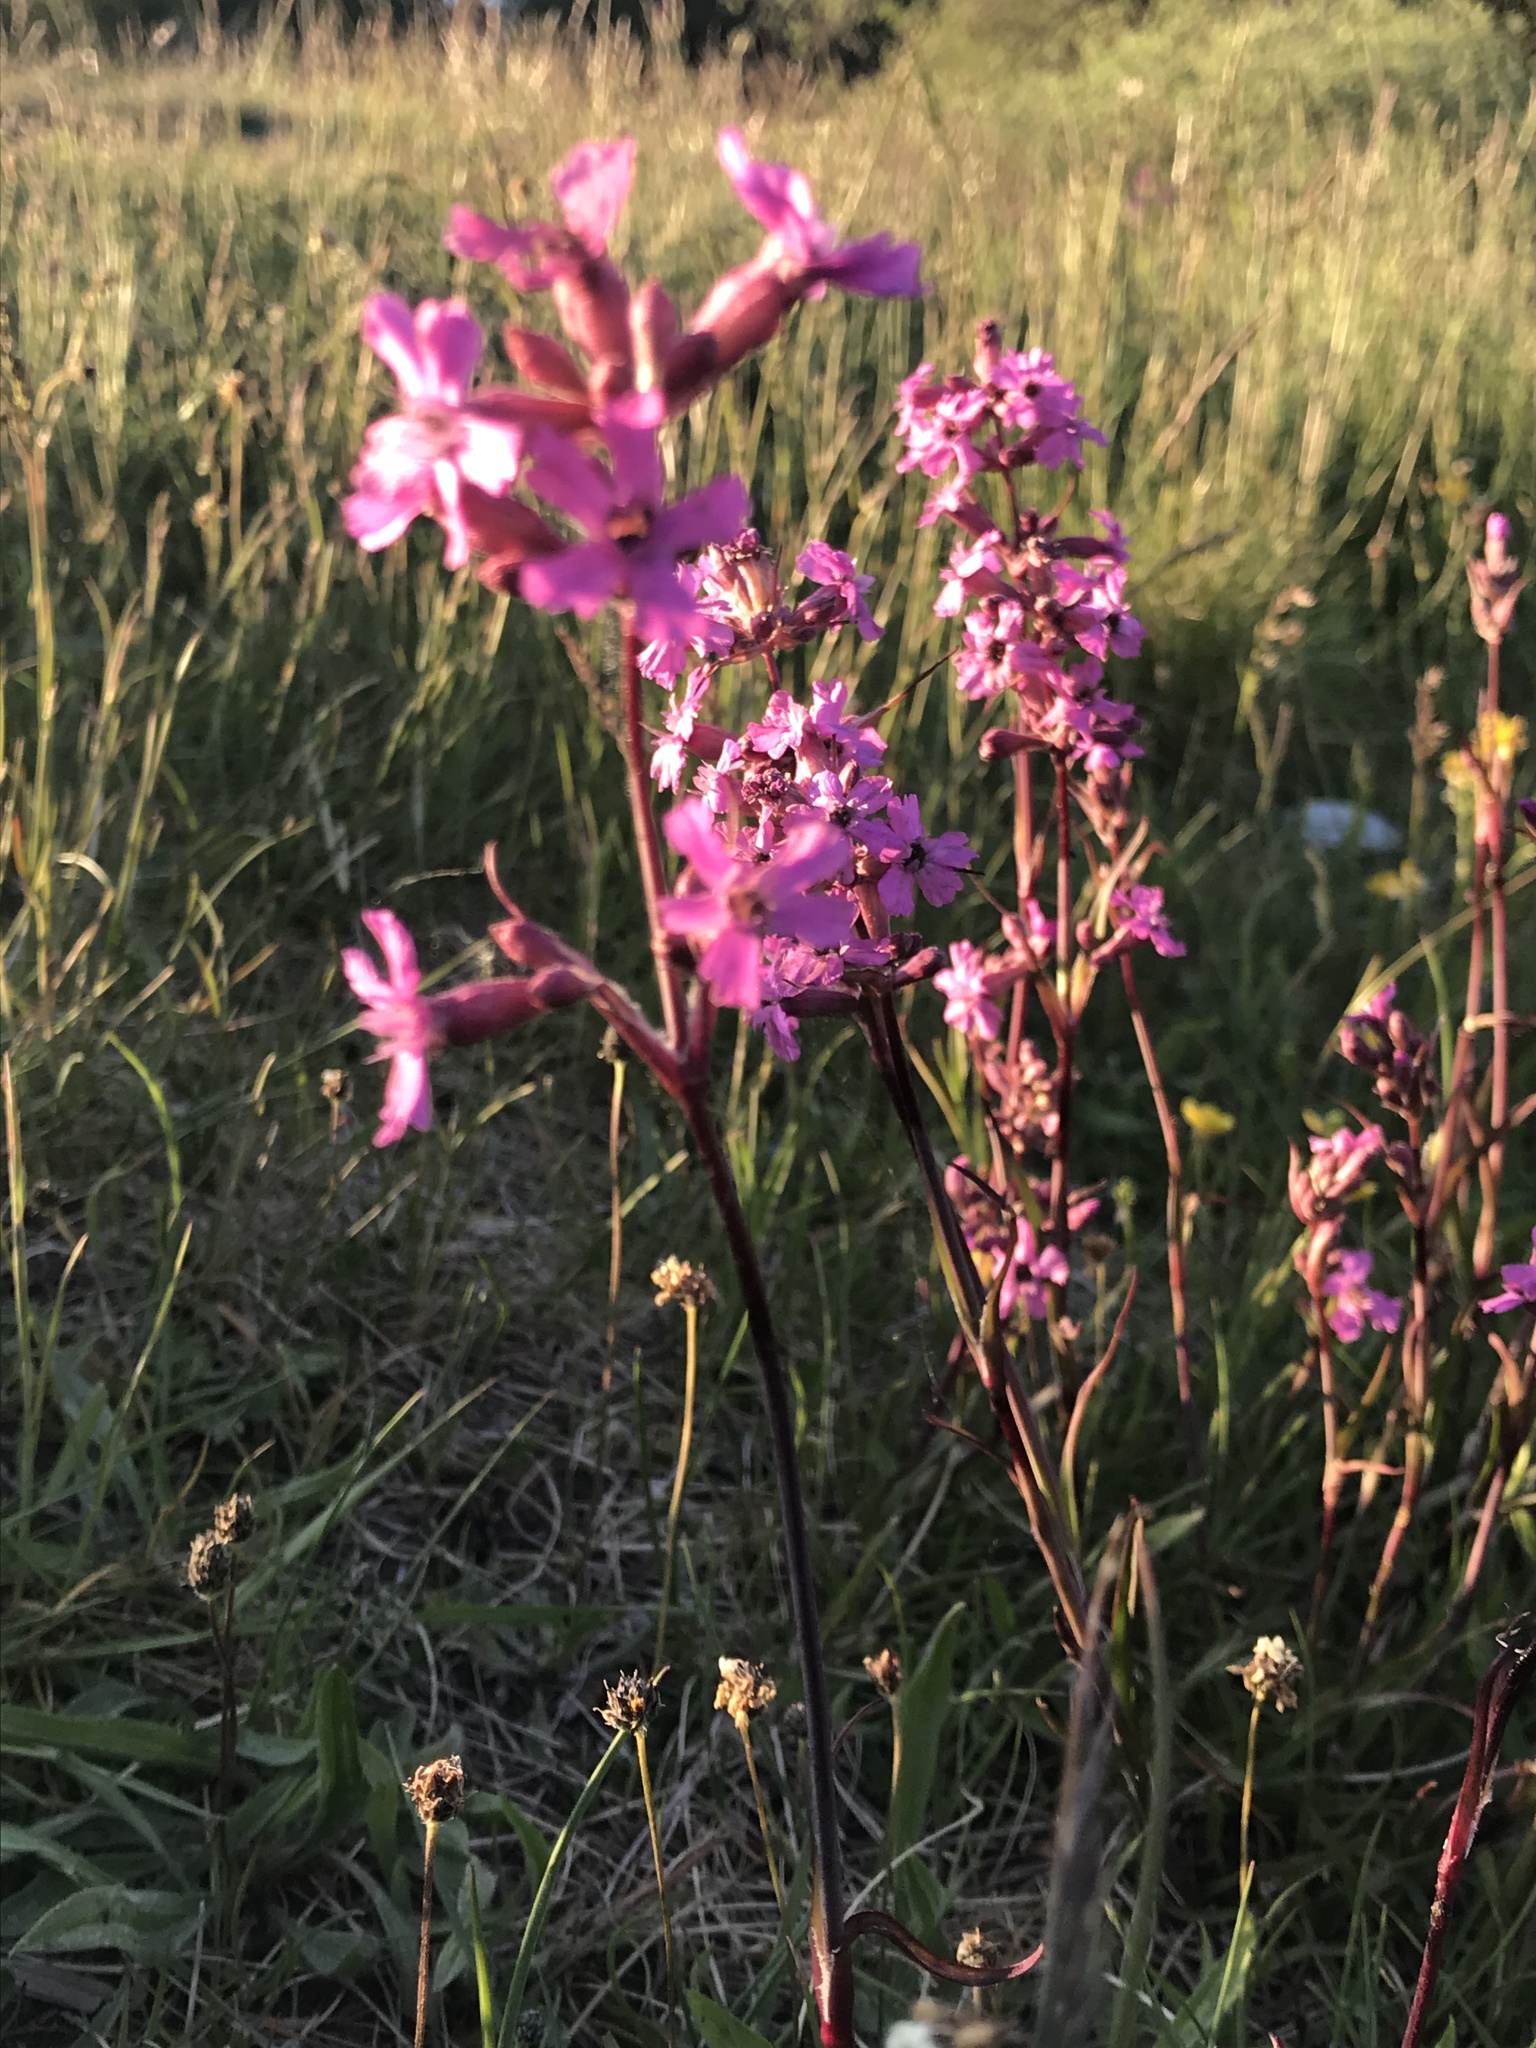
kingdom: Plantae
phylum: Tracheophyta
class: Magnoliopsida
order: Caryophyllales
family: Caryophyllaceae
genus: Viscaria
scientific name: Viscaria vulgaris
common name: Clammy campion
